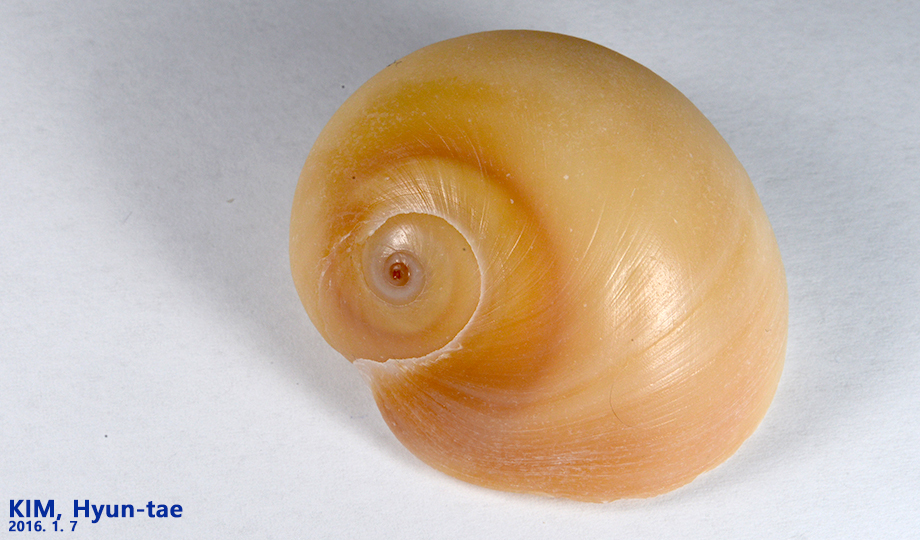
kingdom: Animalia
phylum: Mollusca
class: Gastropoda
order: Littorinimorpha
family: Naticidae
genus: Neverita
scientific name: Neverita didyma
